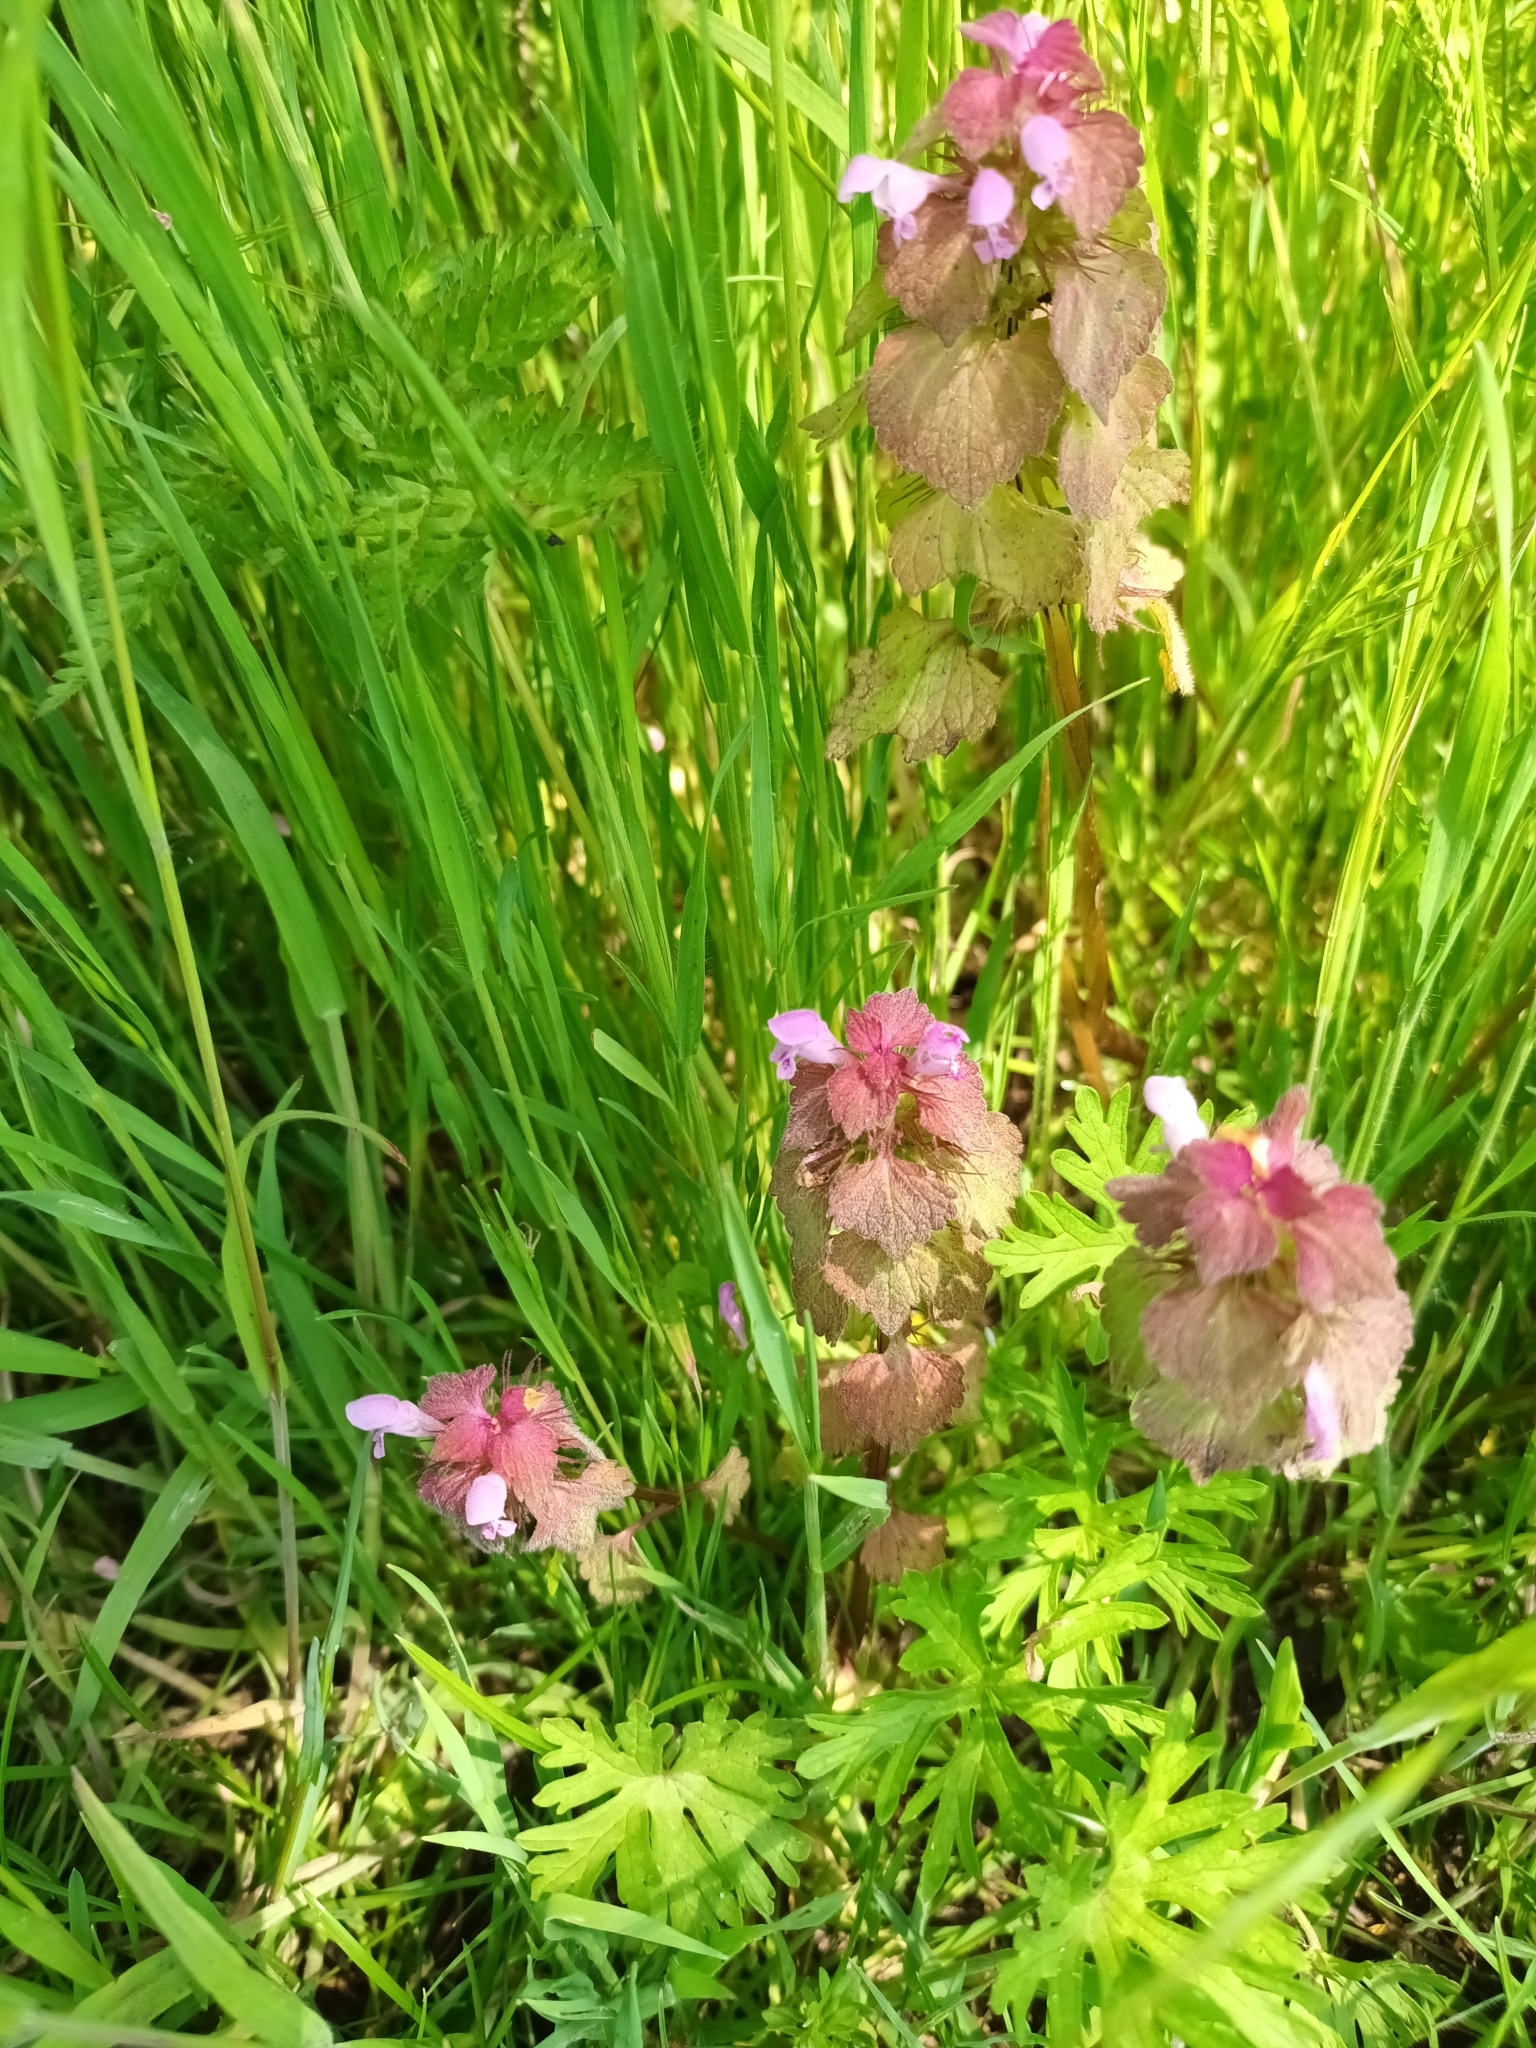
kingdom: Plantae
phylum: Tracheophyta
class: Magnoliopsida
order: Lamiales
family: Lamiaceae
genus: Lamium
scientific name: Lamium purpureum
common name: Red dead-nettle
